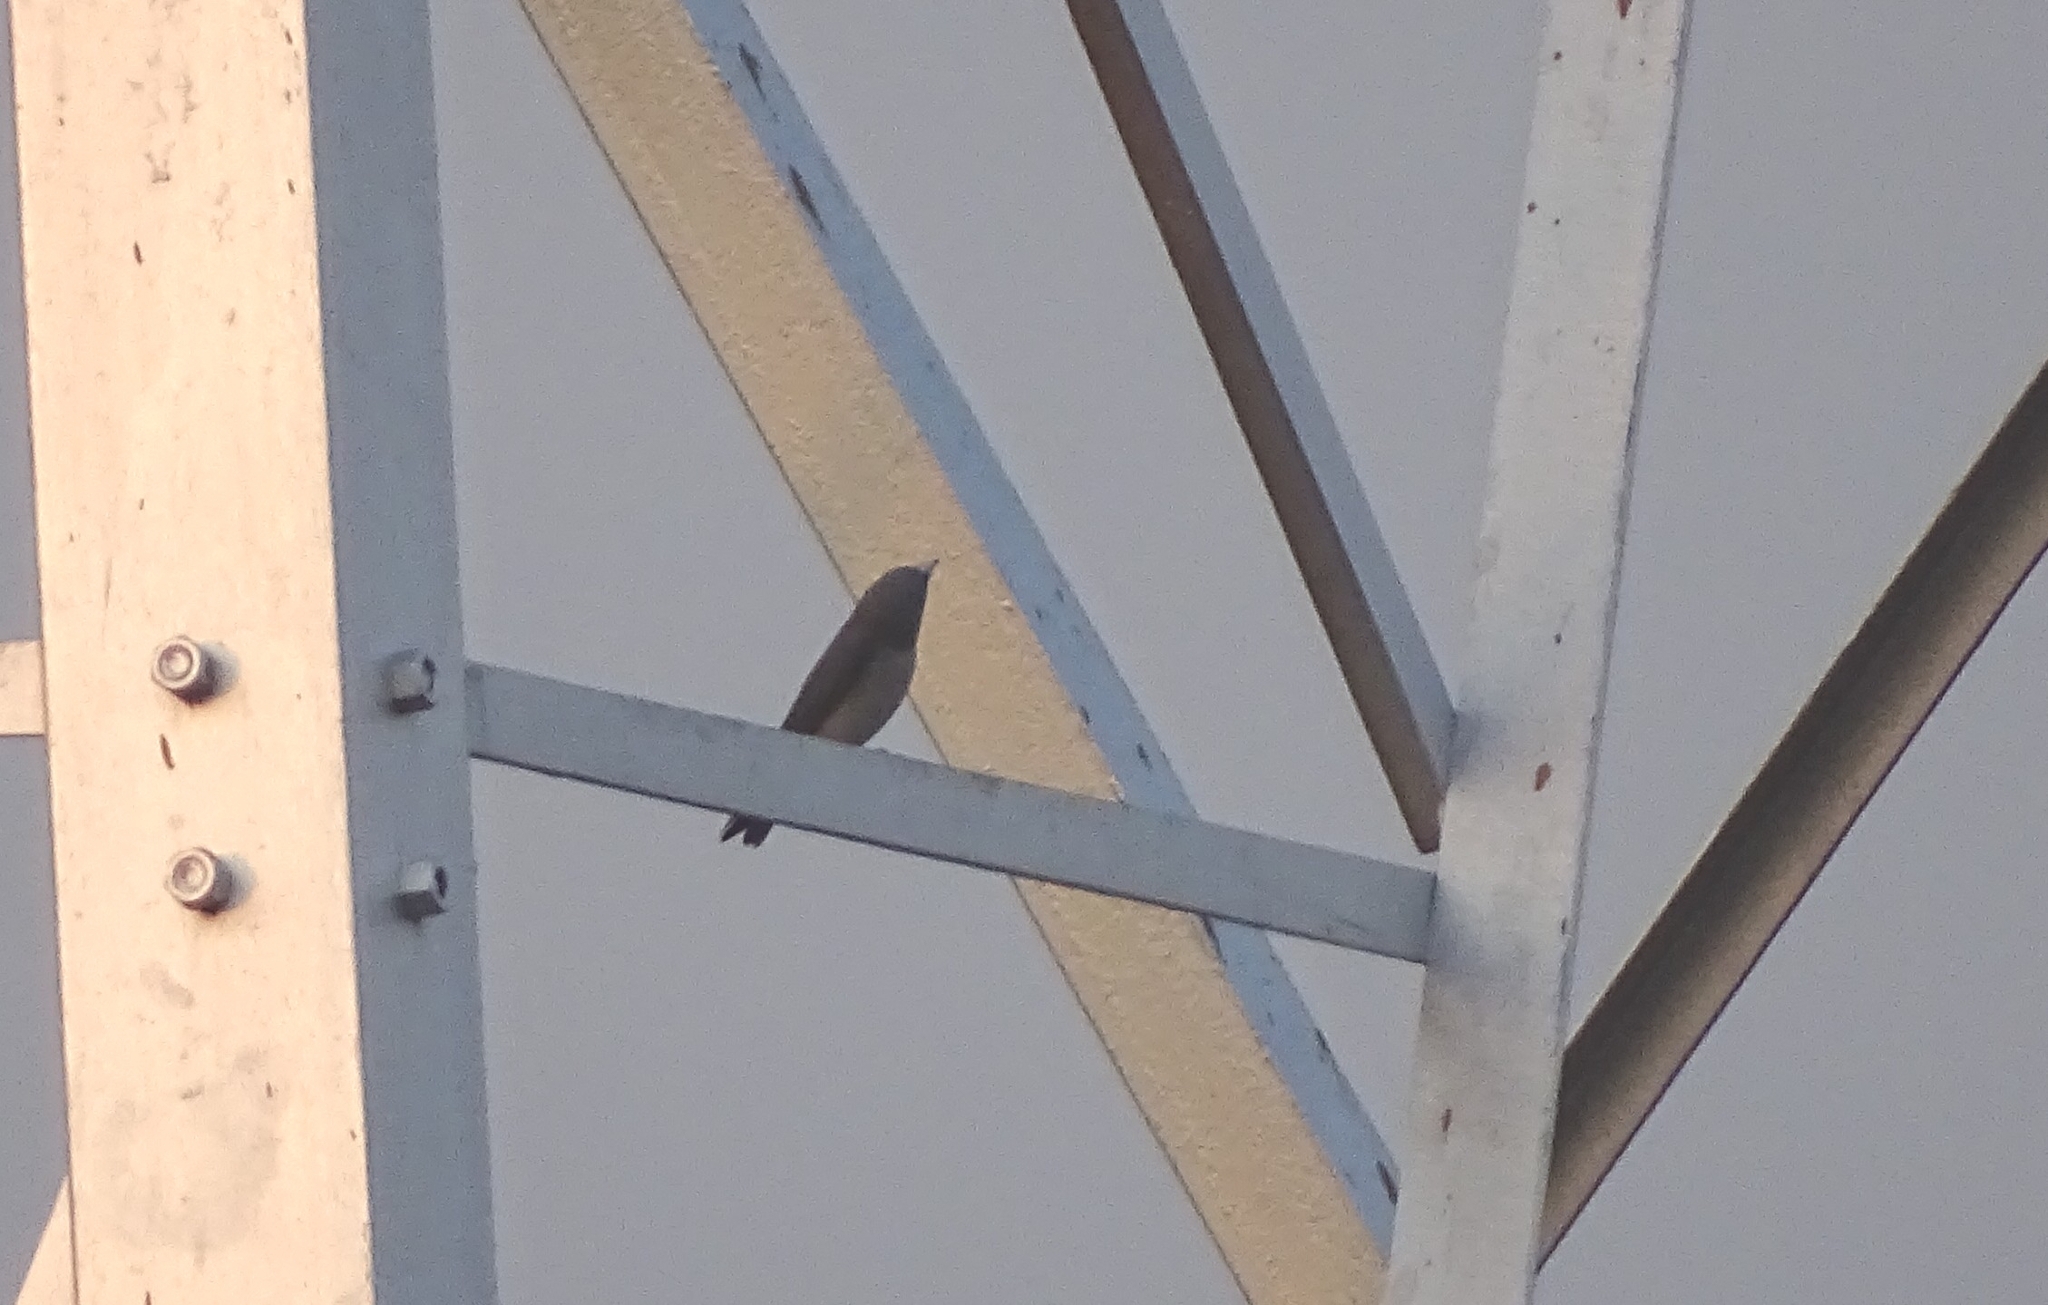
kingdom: Animalia
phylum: Chordata
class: Aves
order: Passeriformes
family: Artamidae
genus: Artamus
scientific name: Artamus fuscus
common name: Ashy woodswallow
